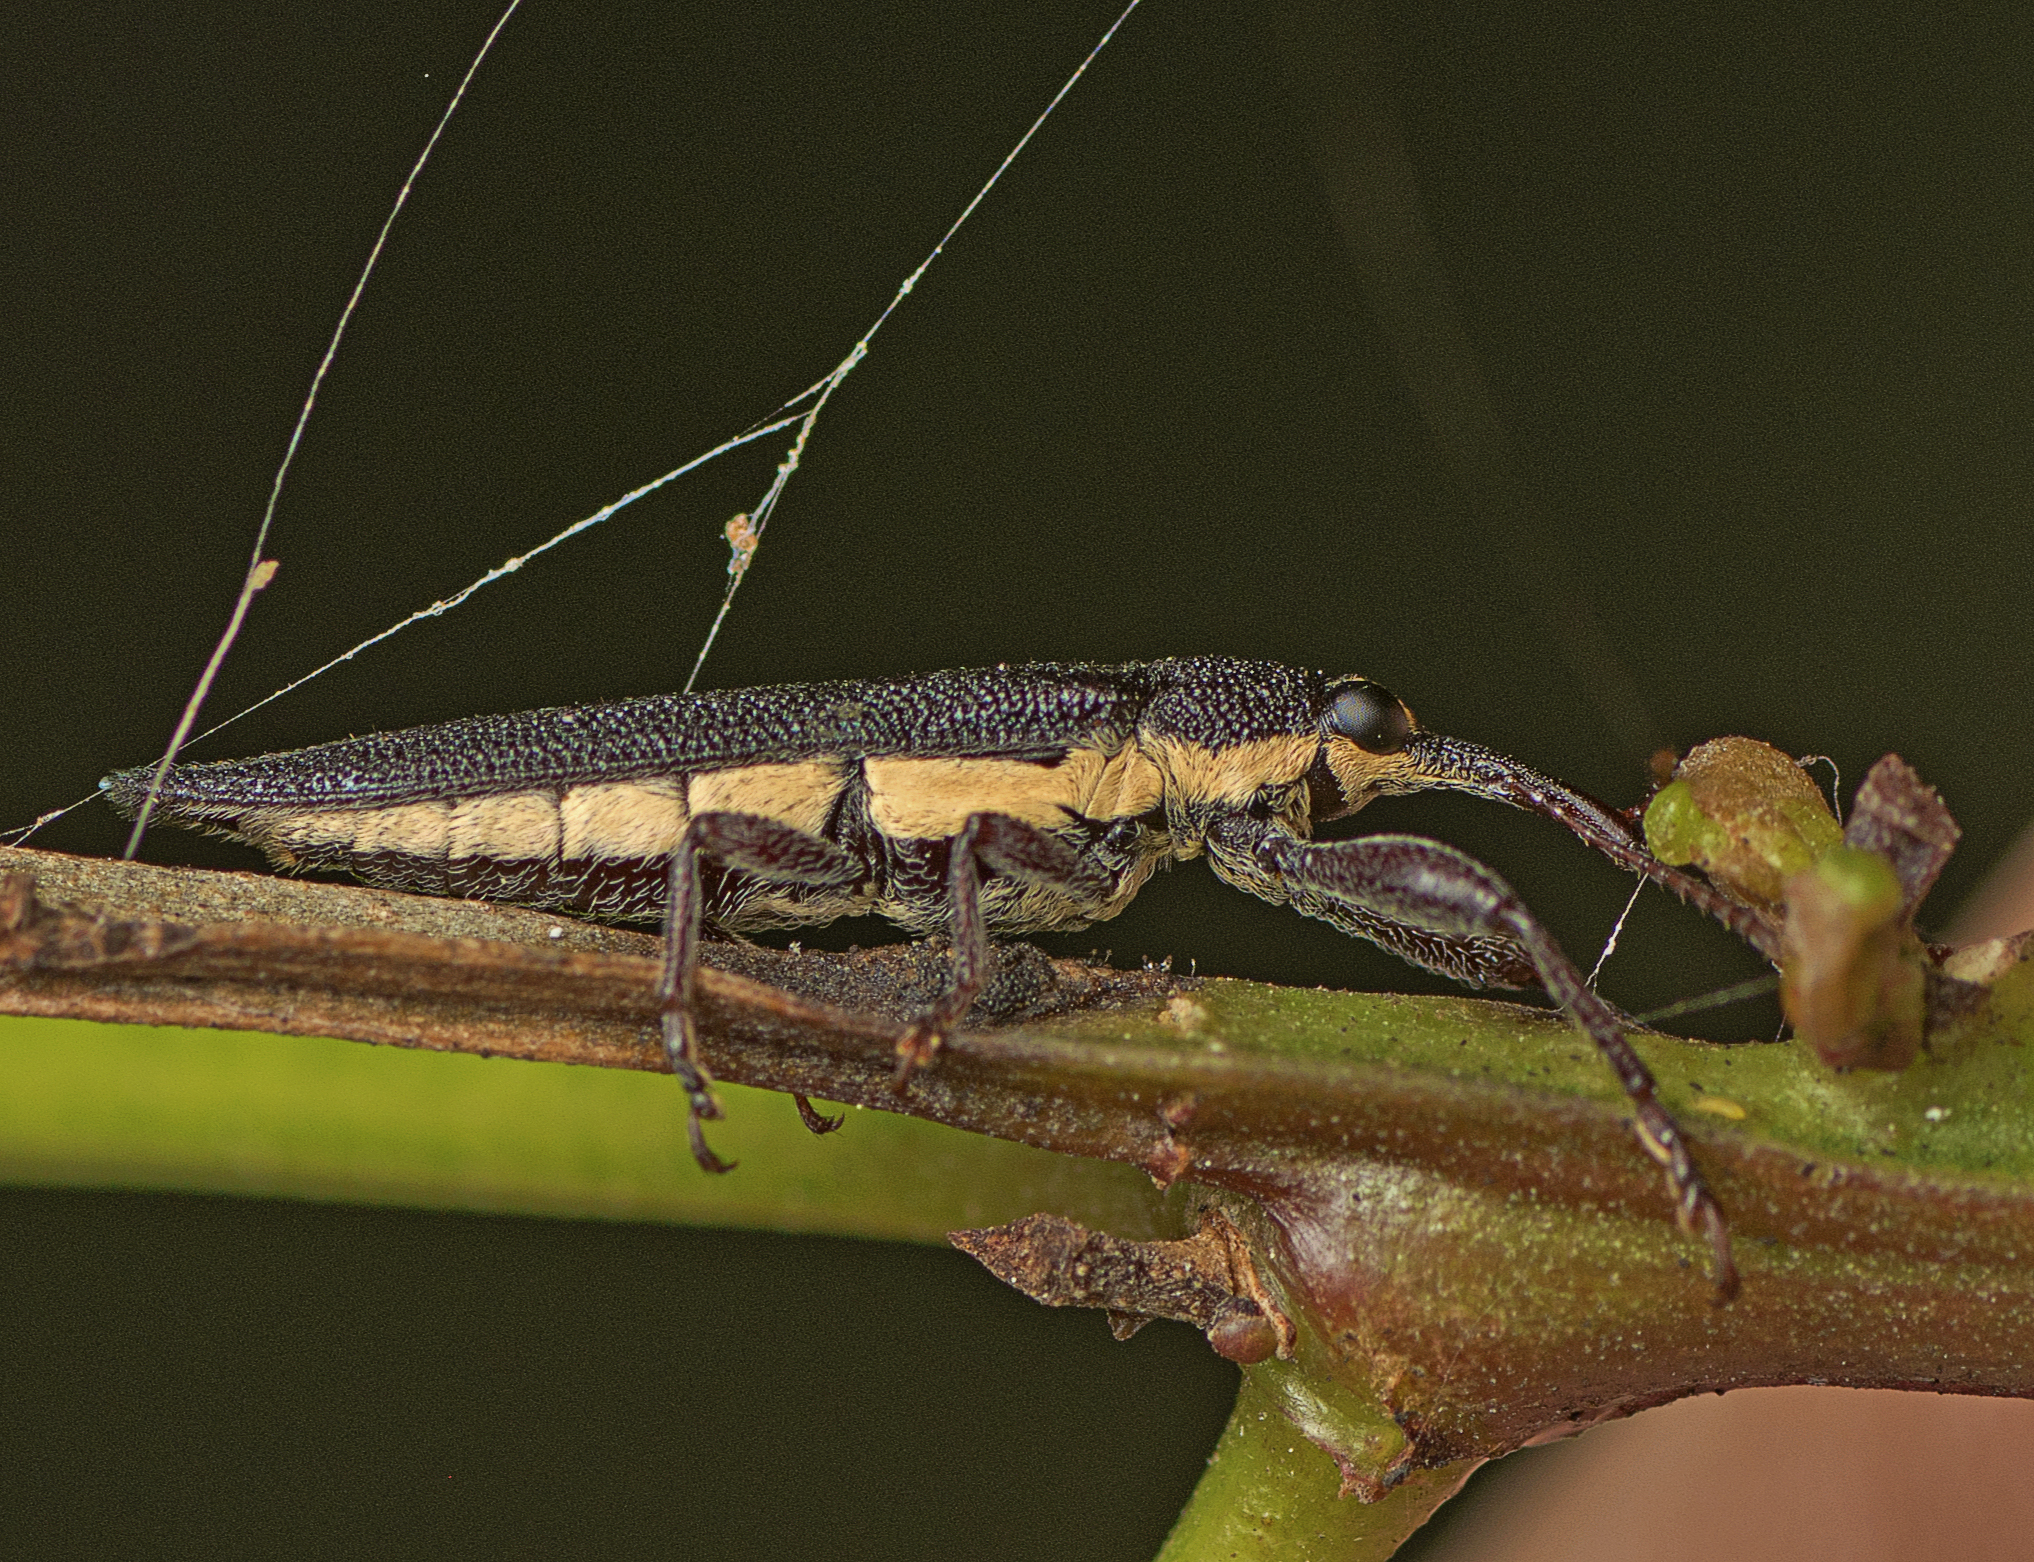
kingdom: Animalia
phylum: Arthropoda
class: Insecta
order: Coleoptera
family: Belidae
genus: Rhinotia
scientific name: Rhinotia
